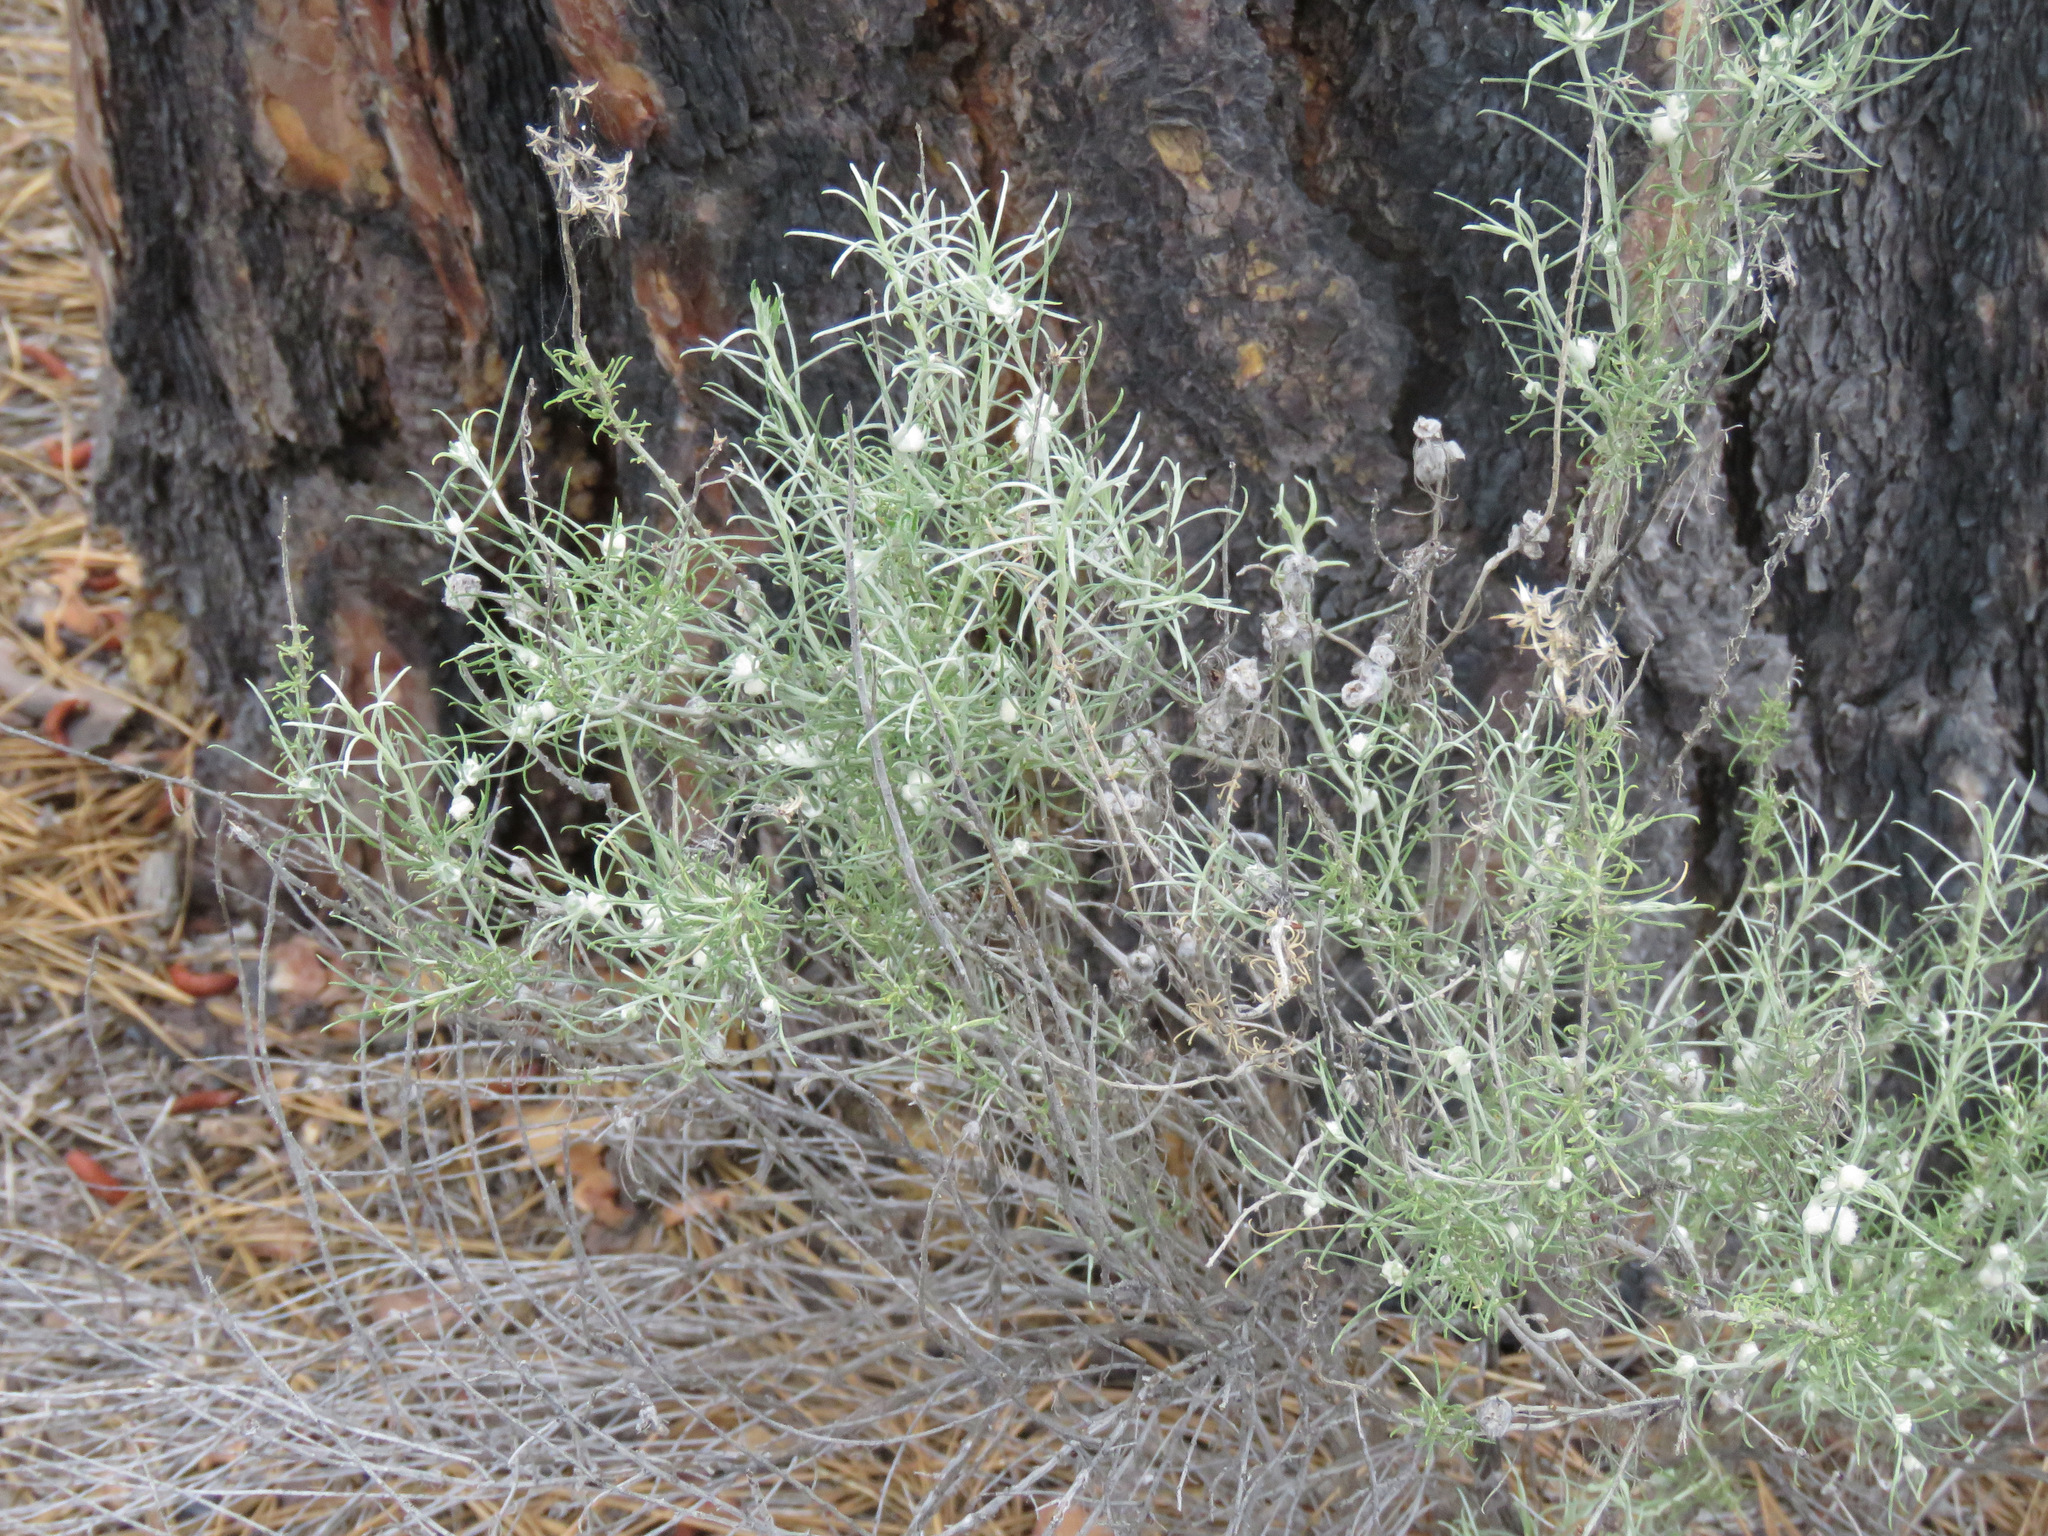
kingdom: Plantae
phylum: Tracheophyta
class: Magnoliopsida
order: Asterales
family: Asteraceae
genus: Ericameria
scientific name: Ericameria nauseosa
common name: Rubber rabbitbrush
